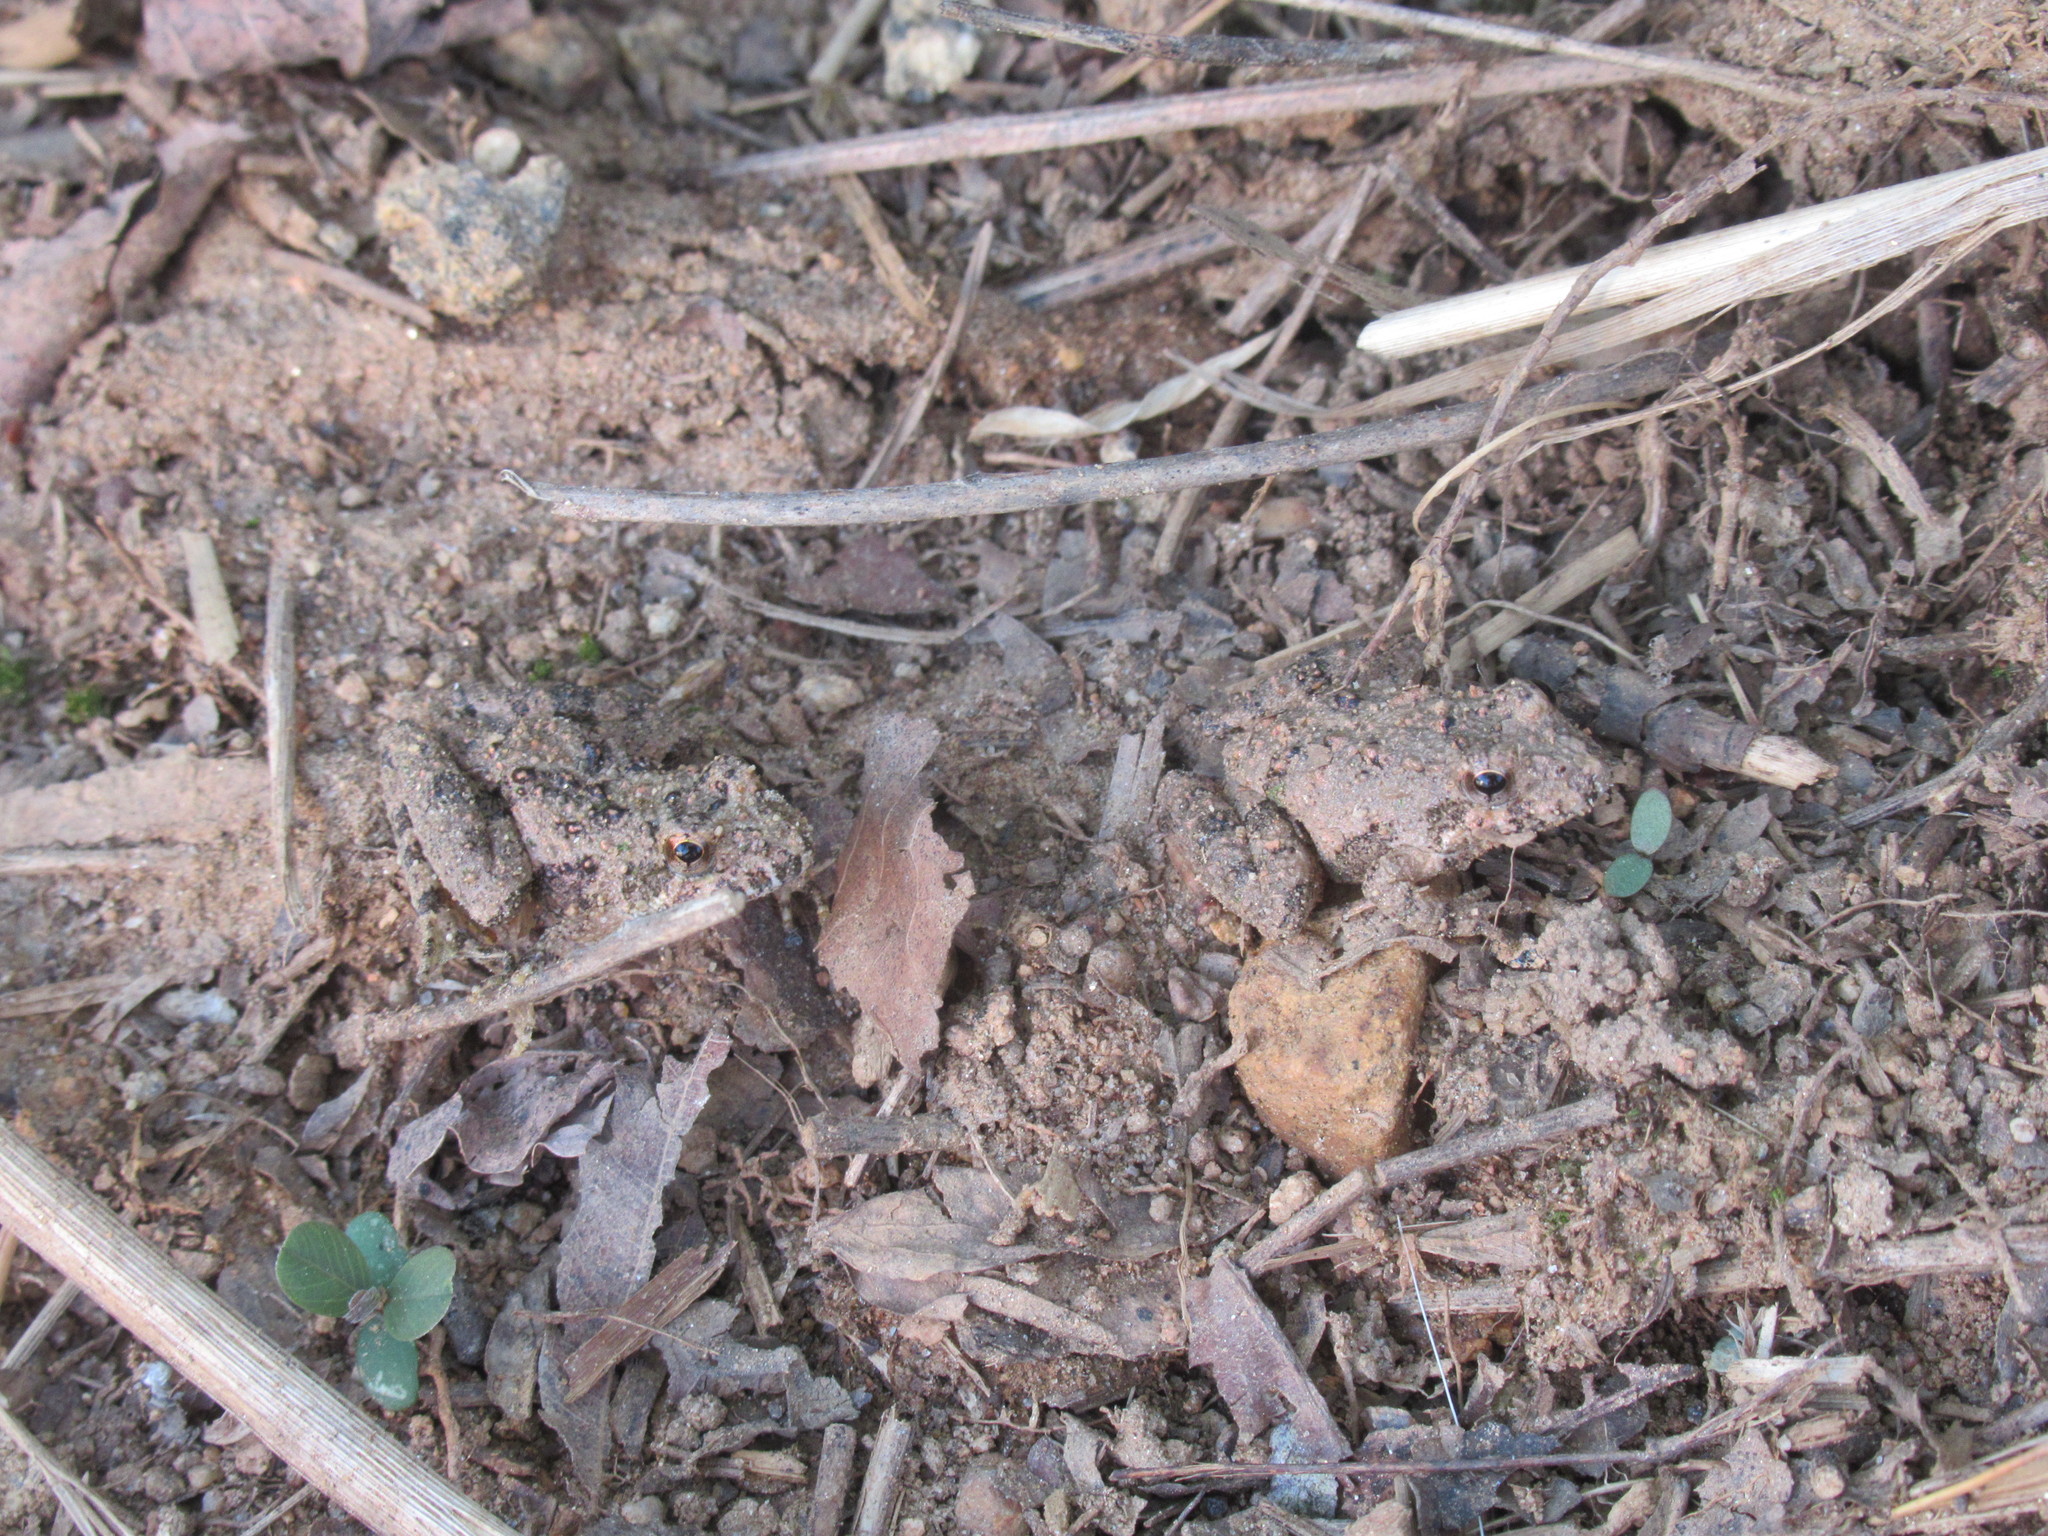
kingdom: Animalia
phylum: Chordata
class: Amphibia
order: Anura
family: Hylidae
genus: Acris
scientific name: Acris crepitans
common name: Northern cricket frog
